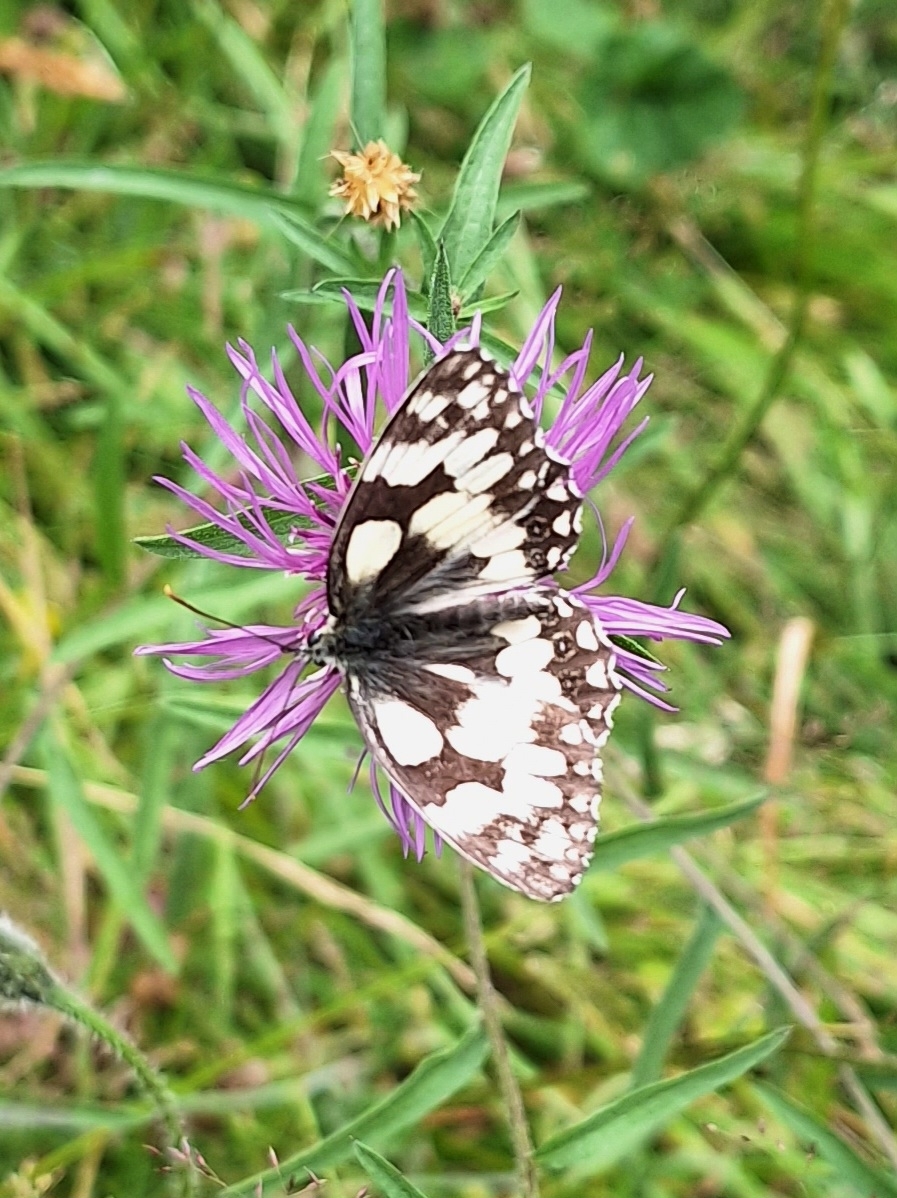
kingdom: Animalia
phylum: Arthropoda
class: Insecta
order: Lepidoptera
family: Nymphalidae
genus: Melanargia
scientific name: Melanargia galathea
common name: Marbled white
